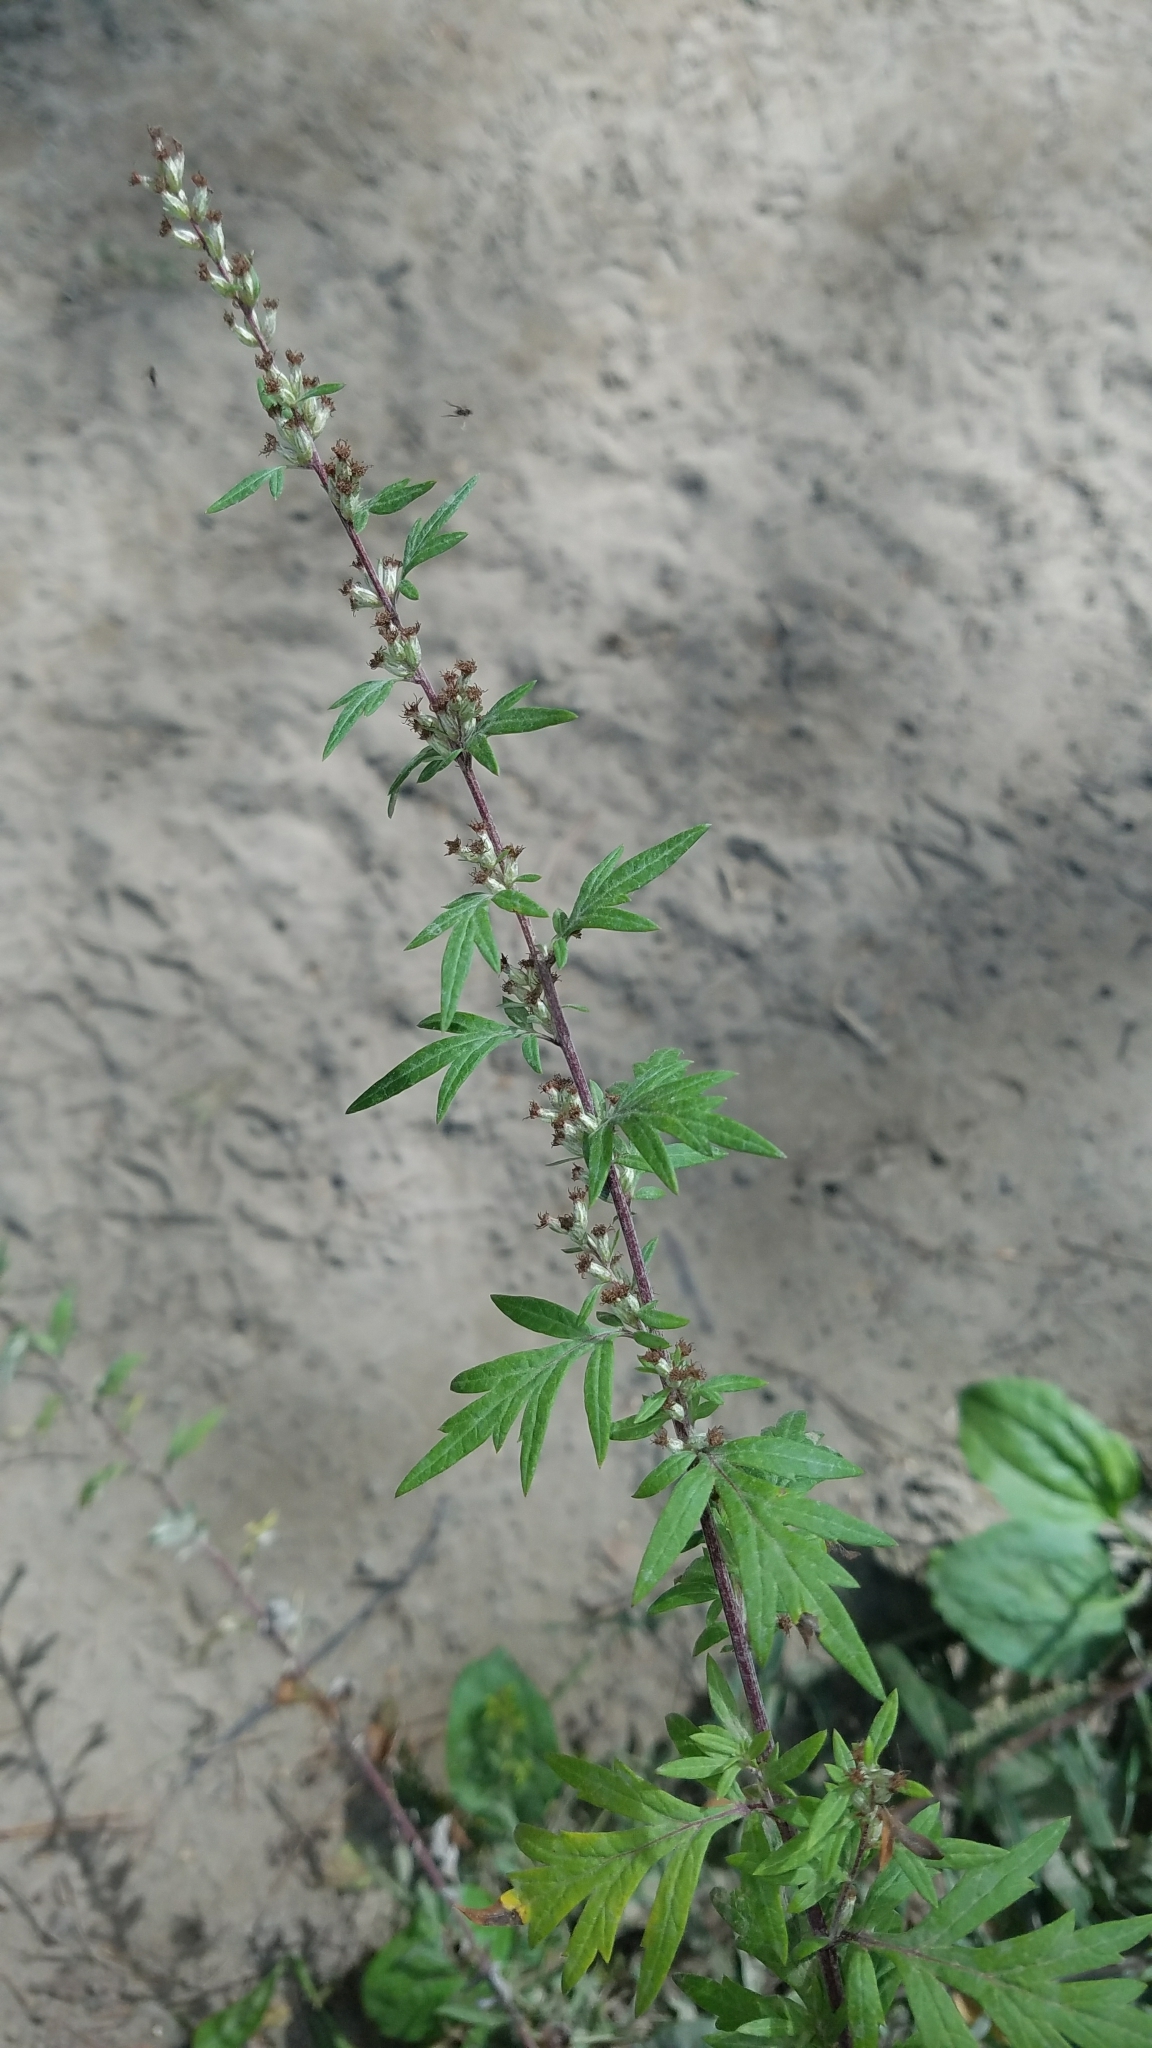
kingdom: Plantae
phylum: Tracheophyta
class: Magnoliopsida
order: Asterales
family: Asteraceae
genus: Artemisia
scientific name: Artemisia vulgaris
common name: Mugwort
